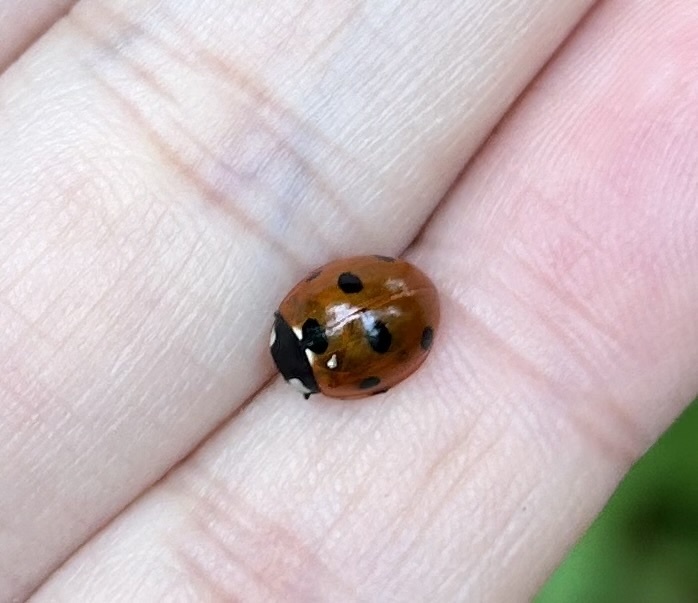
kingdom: Animalia
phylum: Arthropoda
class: Insecta
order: Coleoptera
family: Coccinellidae
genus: Coccinella
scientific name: Coccinella septempunctata
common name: Sevenspotted lady beetle
